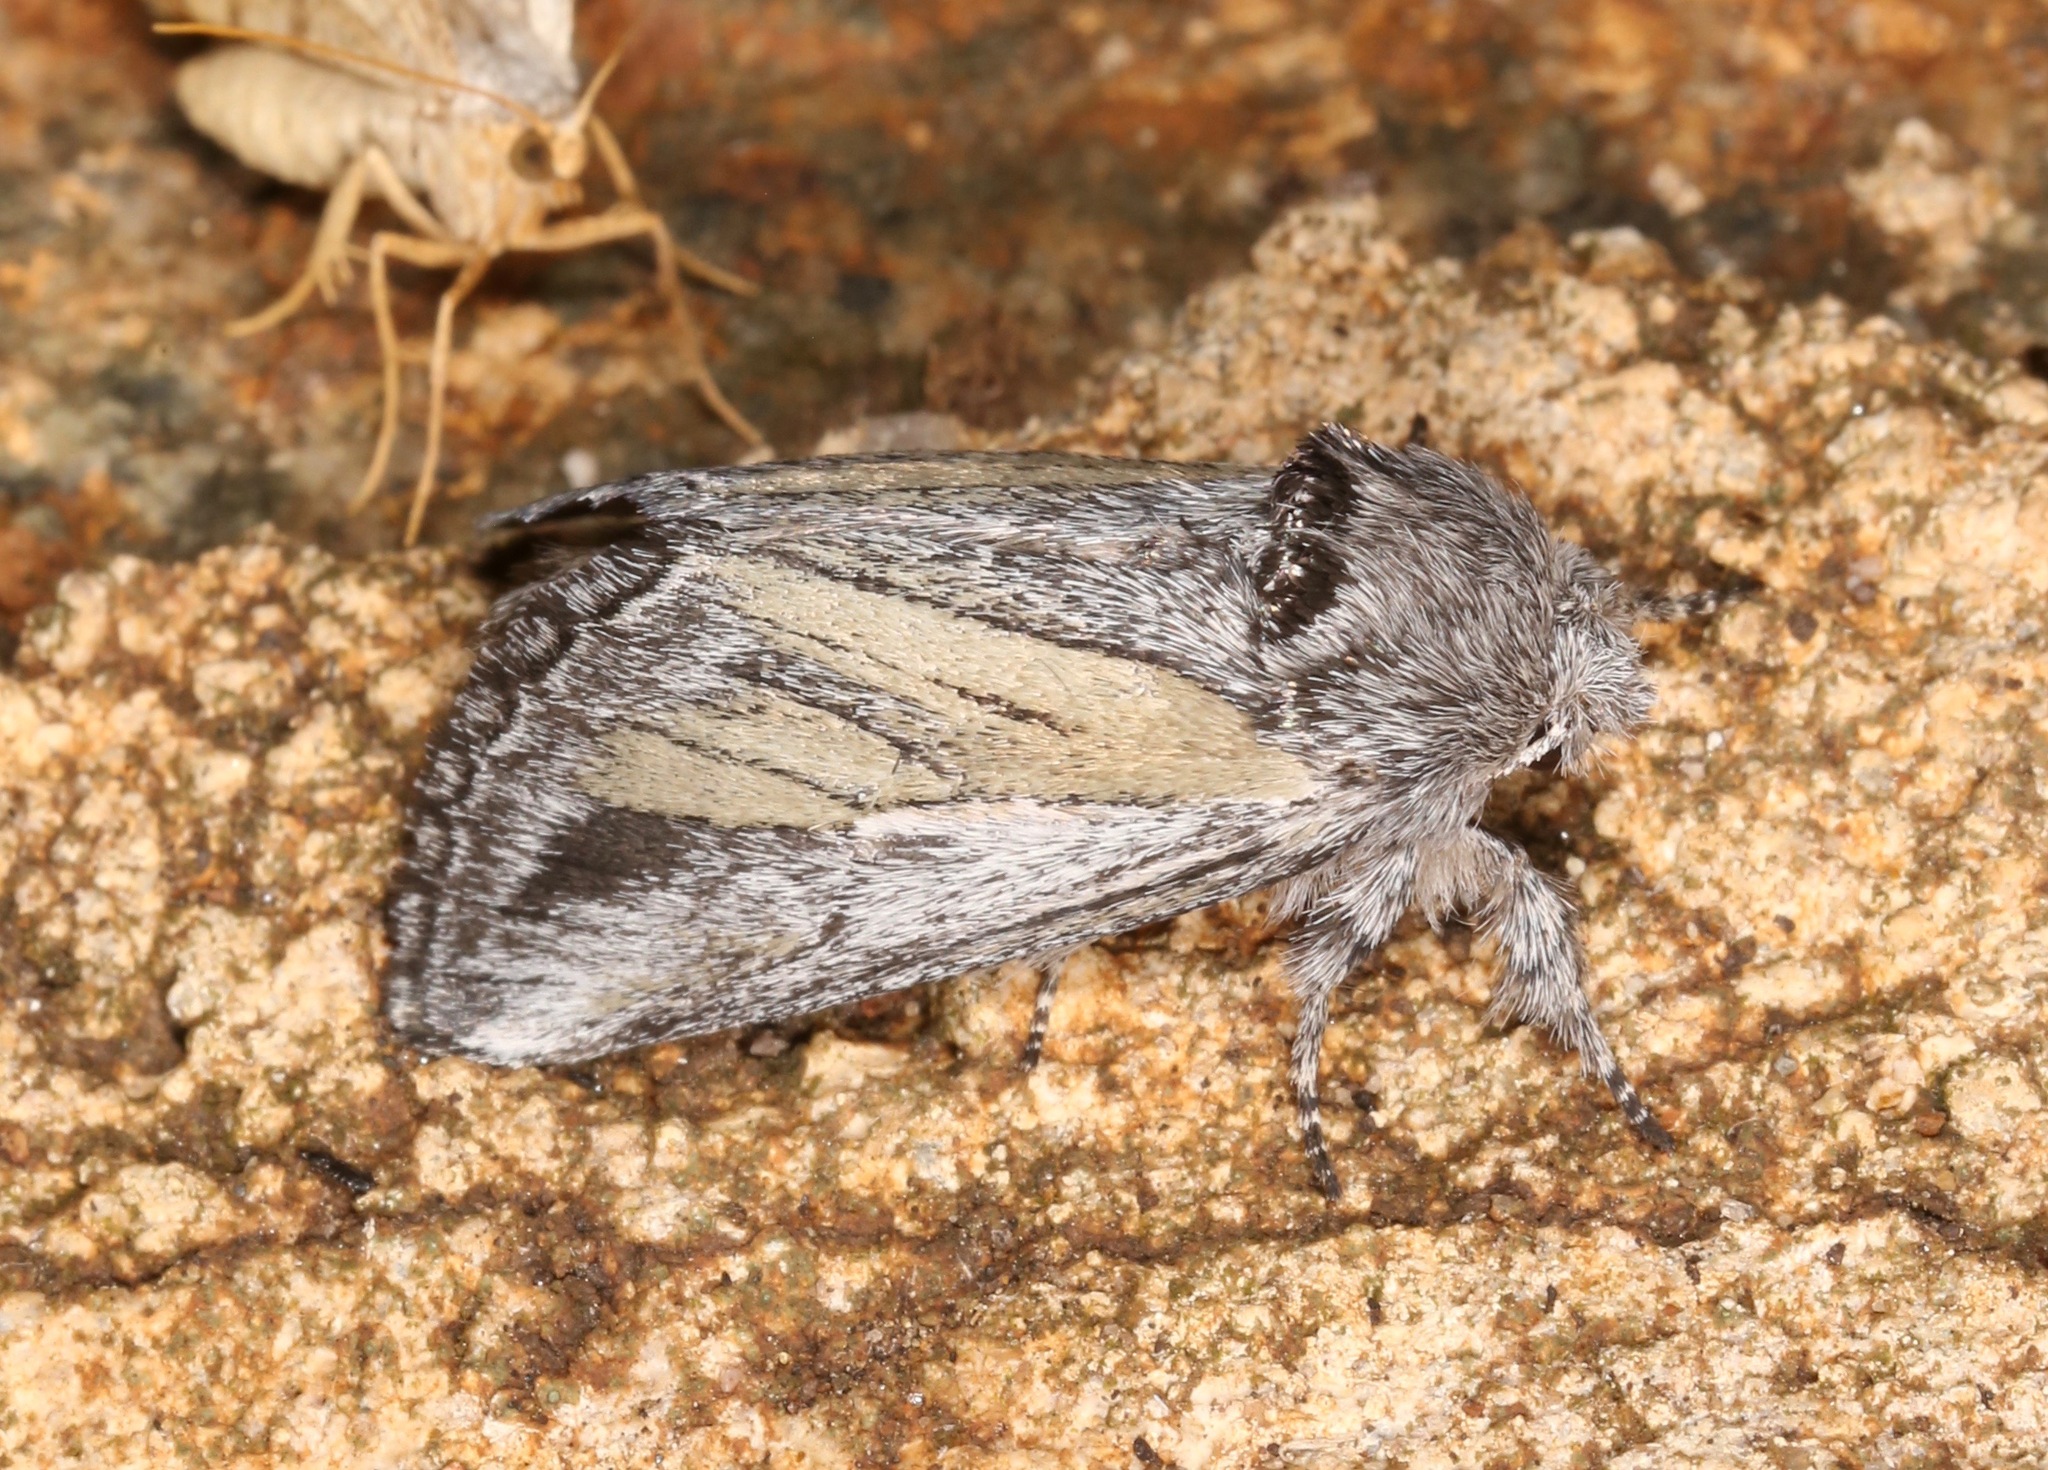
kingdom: Animalia
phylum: Arthropoda
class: Insecta
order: Lepidoptera
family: Notodontidae
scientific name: Notodontidae
